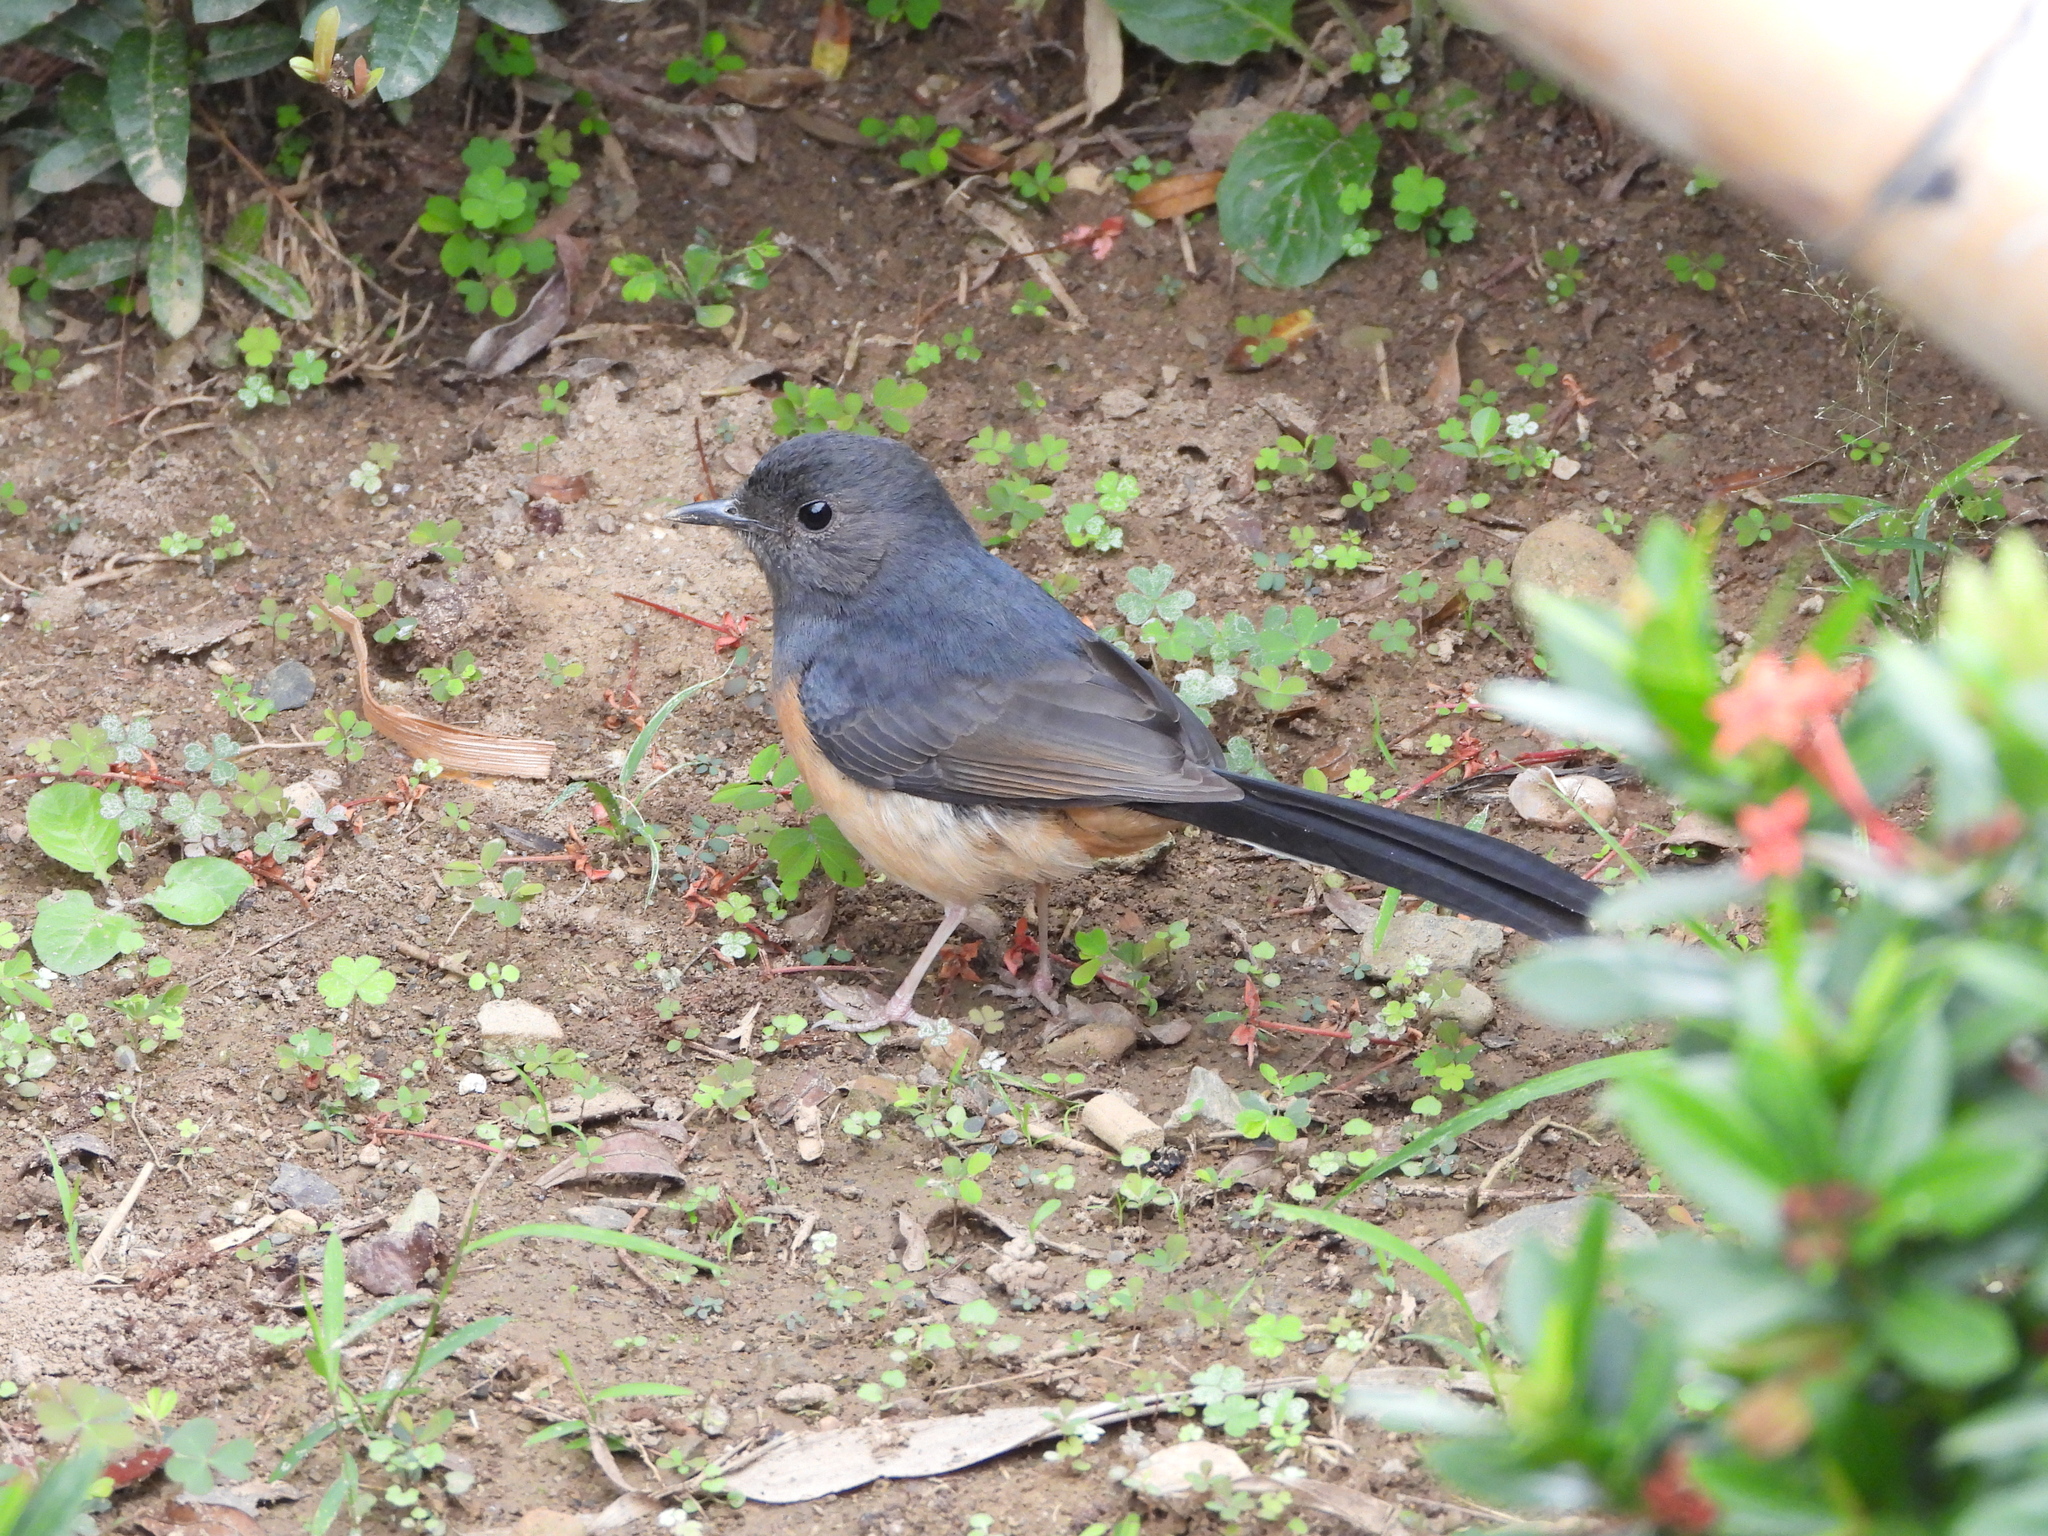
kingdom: Animalia
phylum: Chordata
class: Aves
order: Passeriformes
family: Muscicapidae
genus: Copsychus
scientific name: Copsychus malabaricus
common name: White-rumped shama
